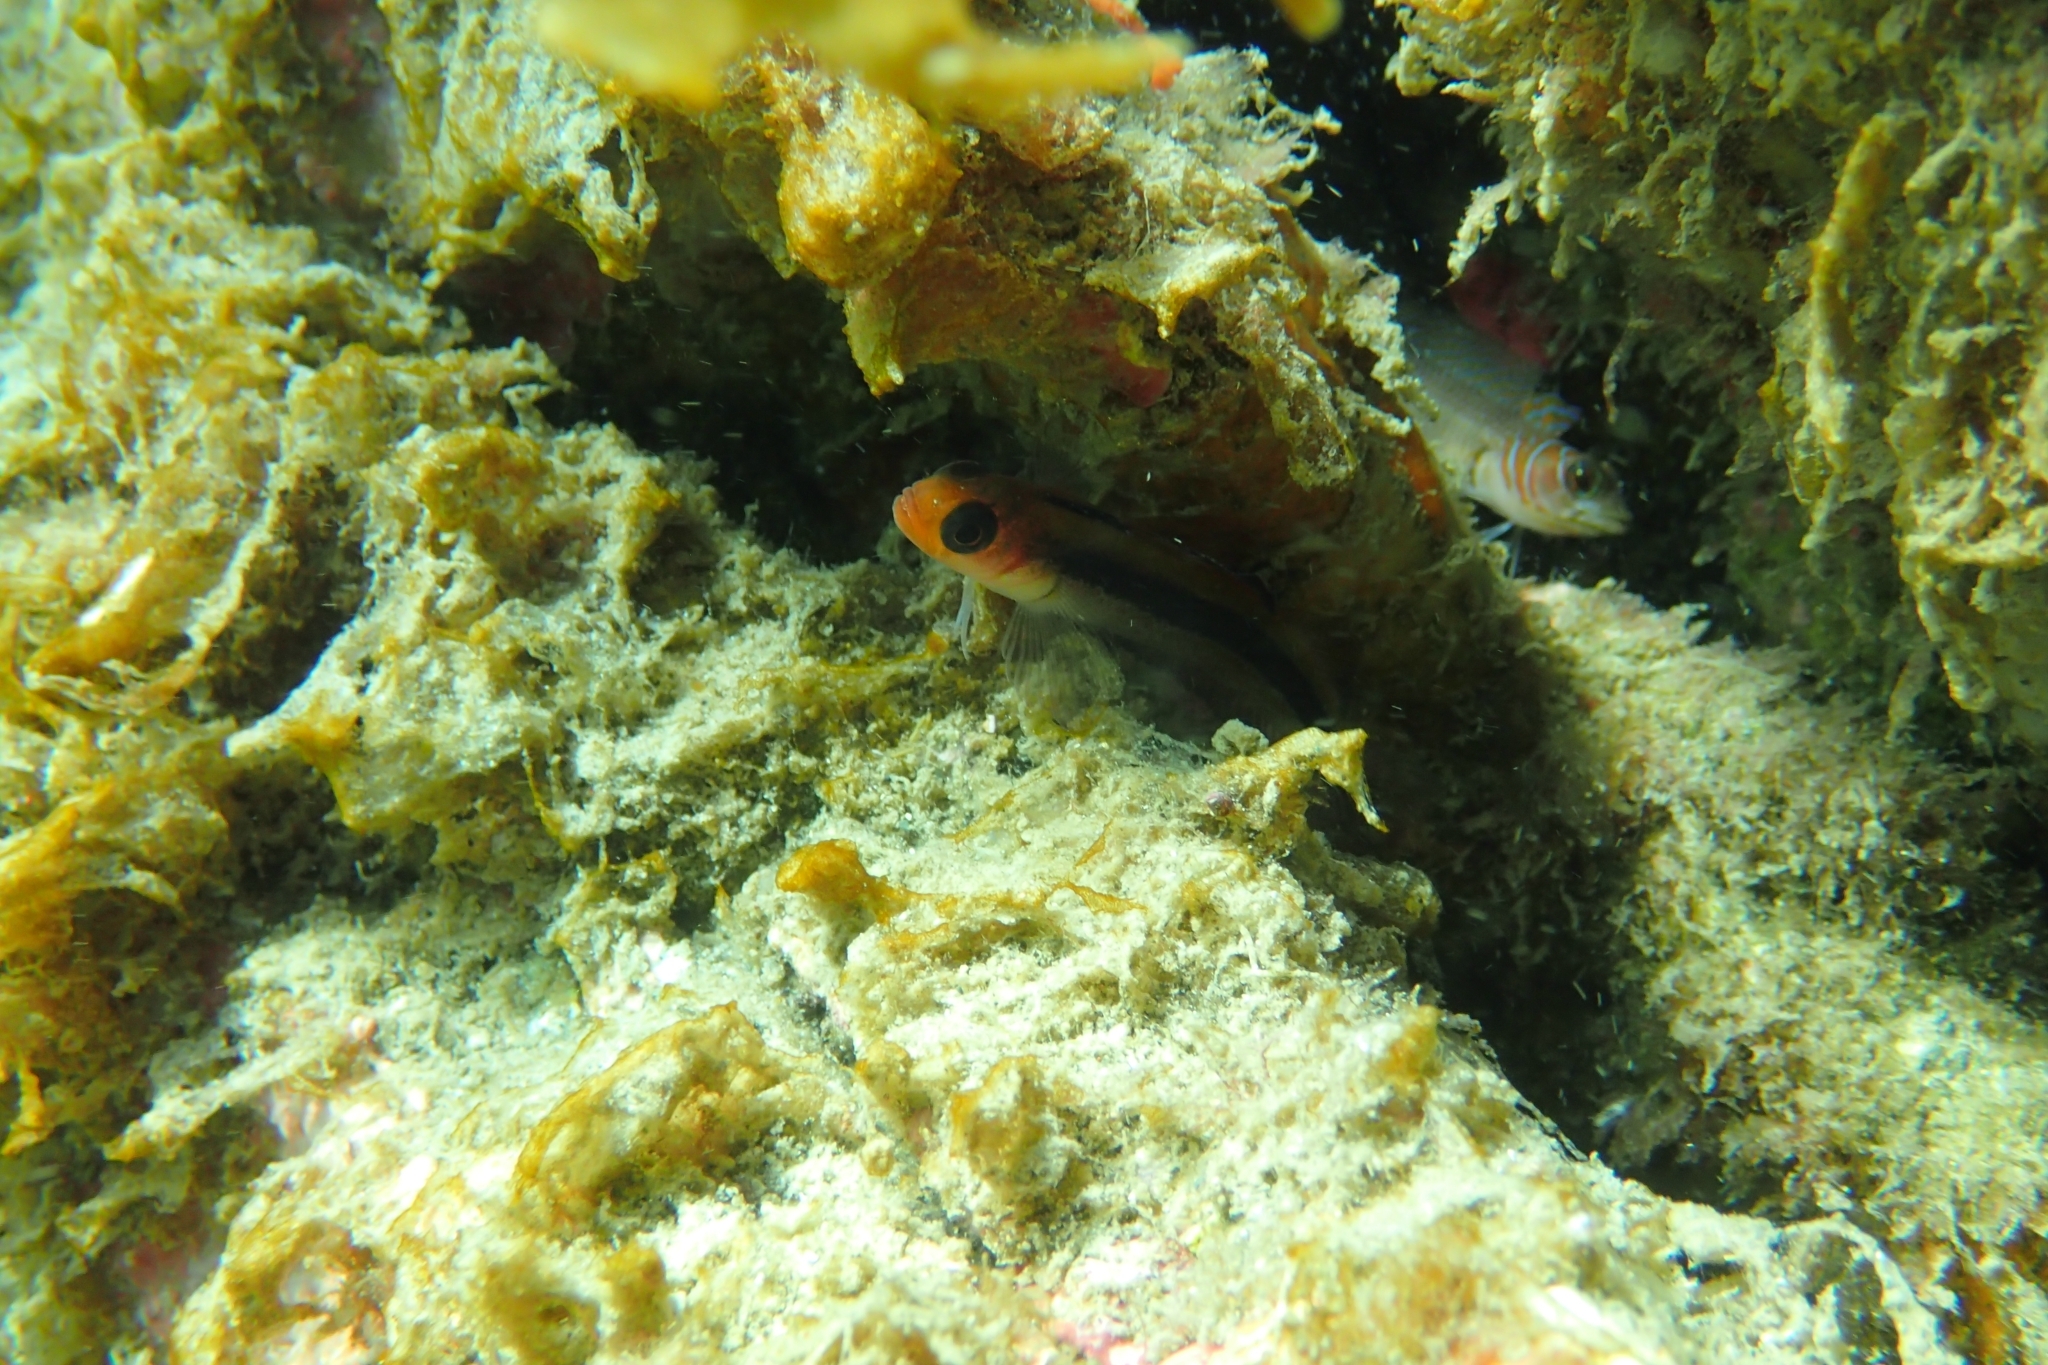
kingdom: Animalia
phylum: Chordata
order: Perciformes
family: Tripterygiidae
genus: Forsterygion
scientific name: Forsterygion maryannae
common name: Oblique-swimming triplefin
